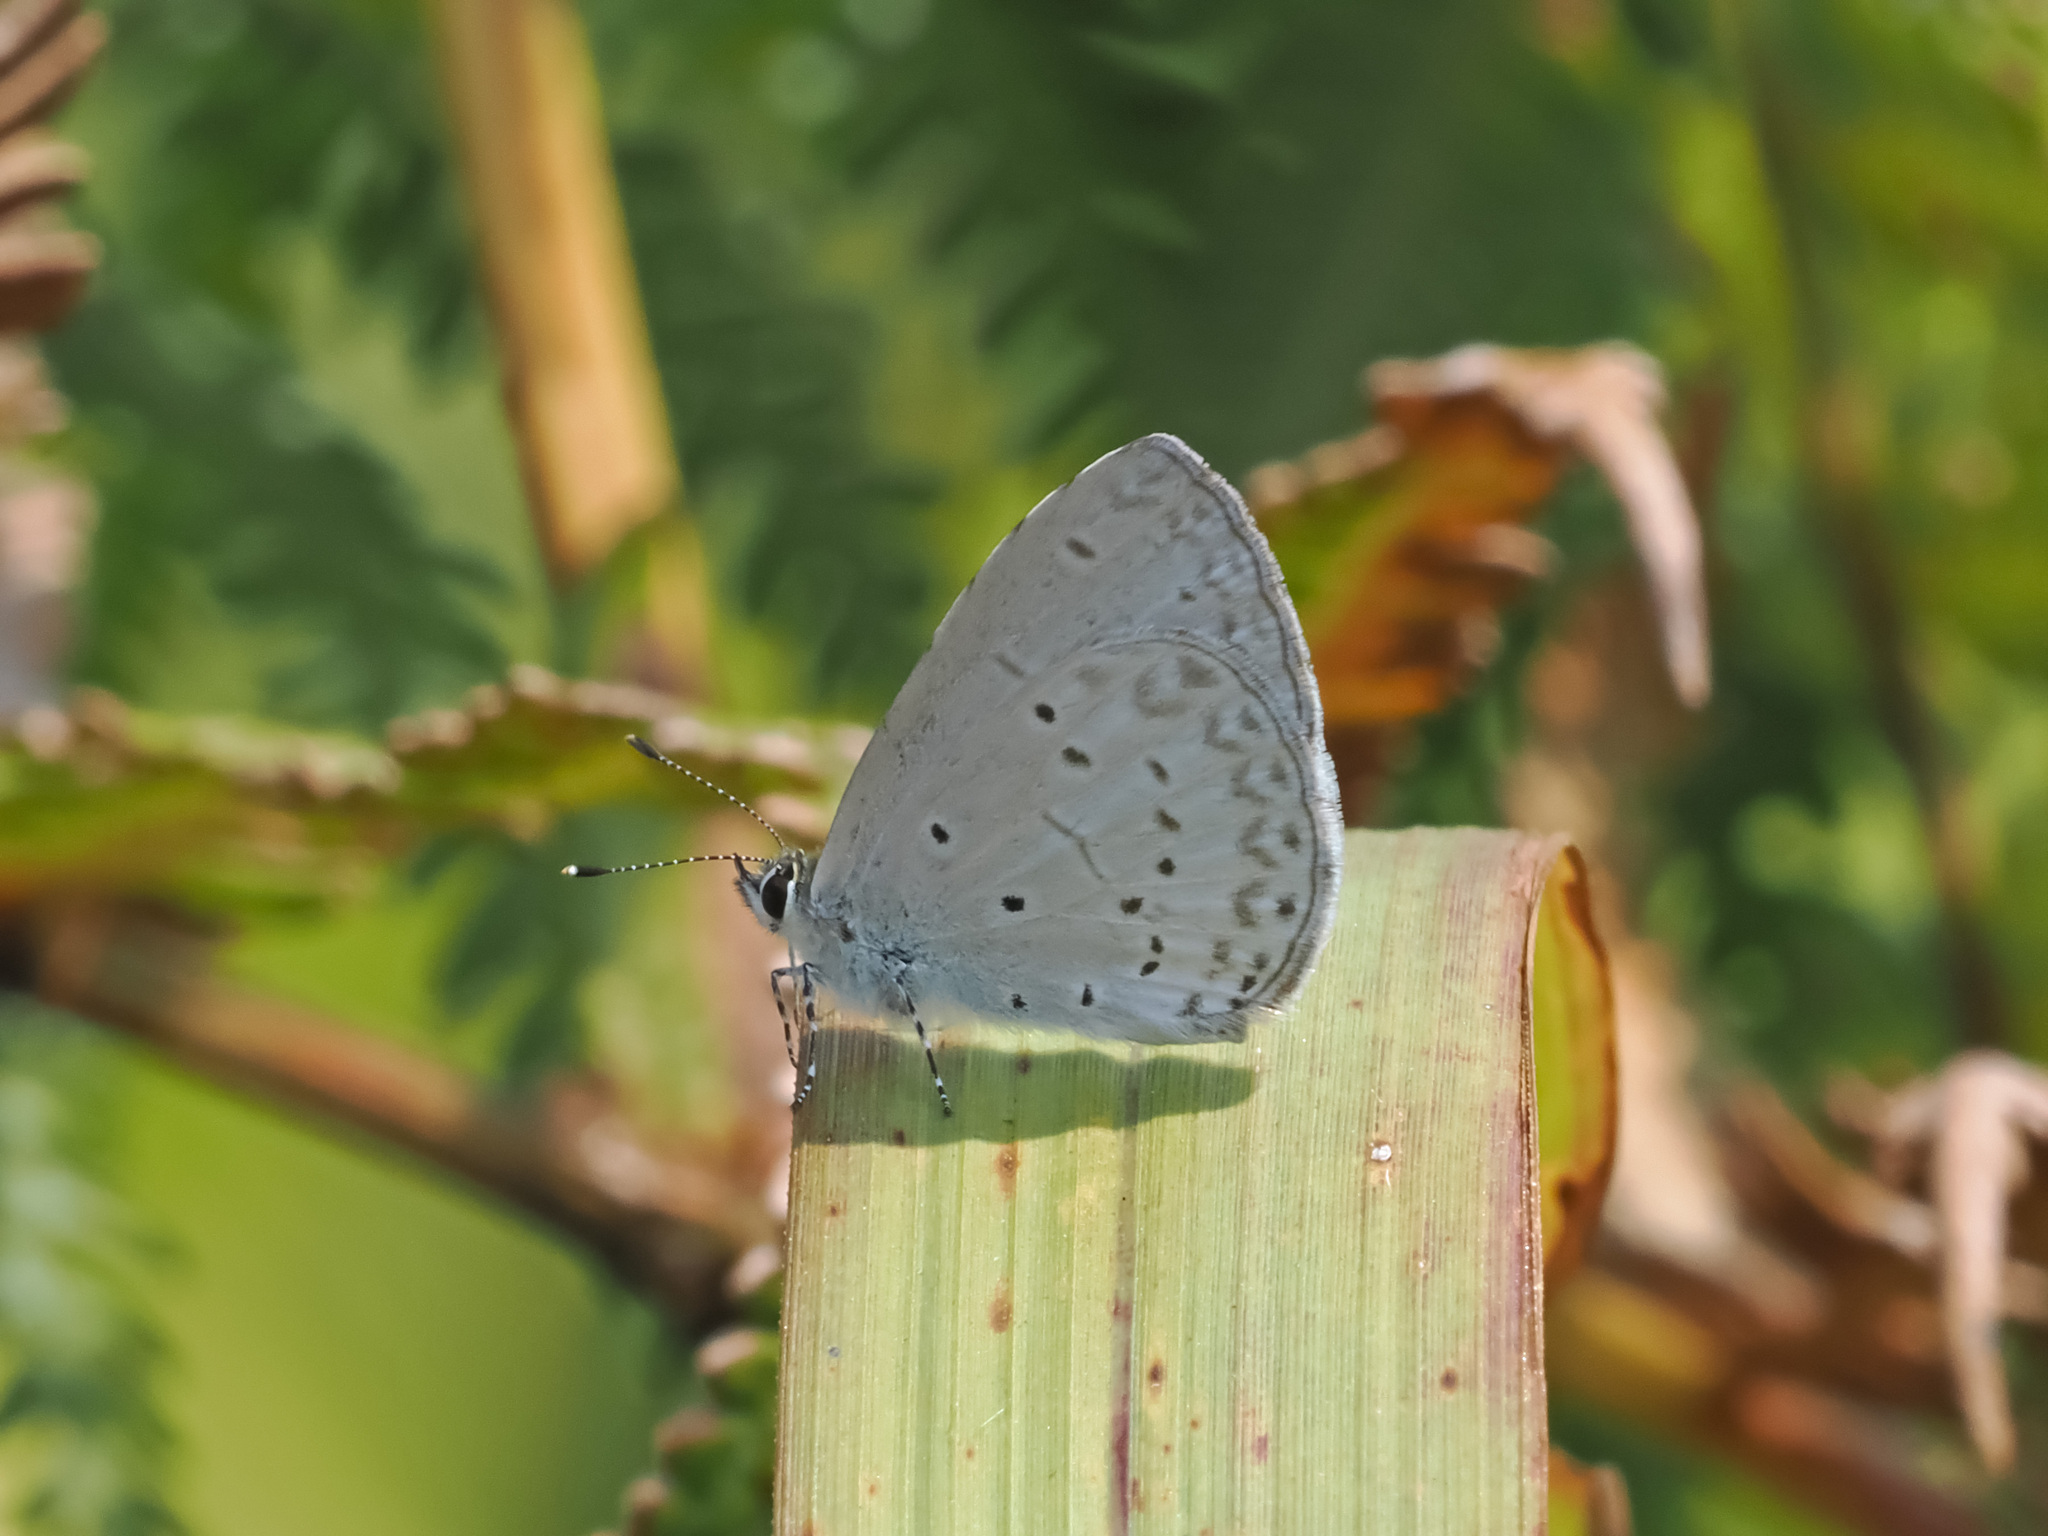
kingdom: Animalia
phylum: Arthropoda
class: Insecta
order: Lepidoptera
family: Lycaenidae
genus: Celastrina
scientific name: Celastrina argiolus
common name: Holly blue
